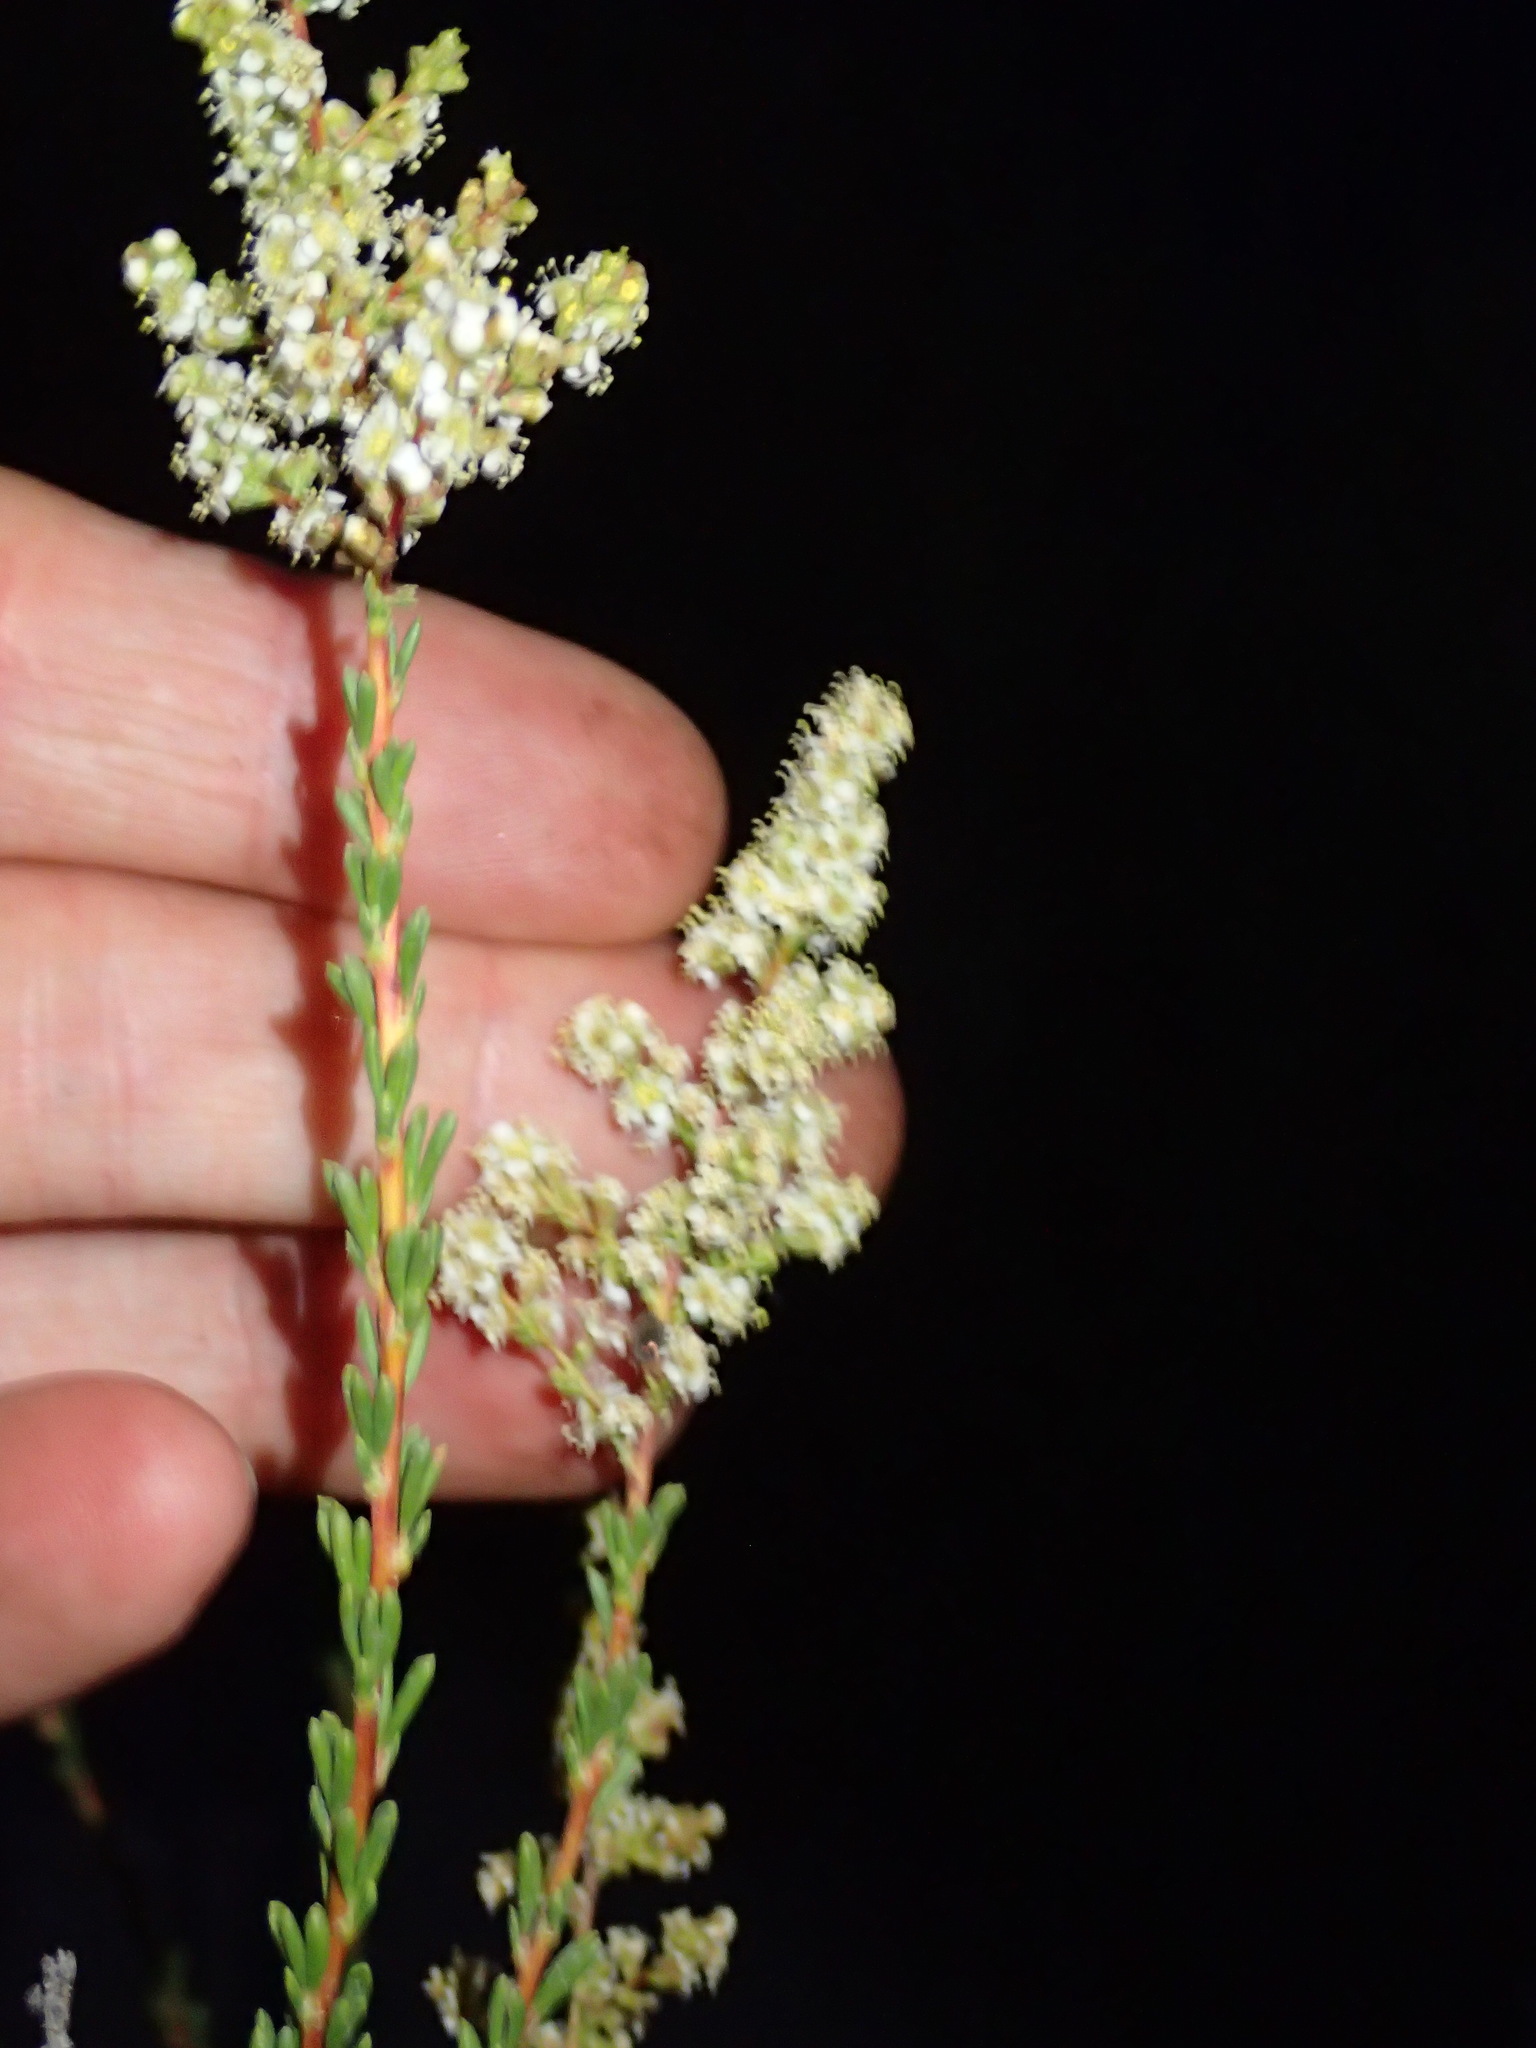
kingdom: Plantae
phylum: Tracheophyta
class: Magnoliopsida
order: Rosales
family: Rosaceae
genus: Adenostoma
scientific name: Adenostoma fasciculatum
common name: Chamise
